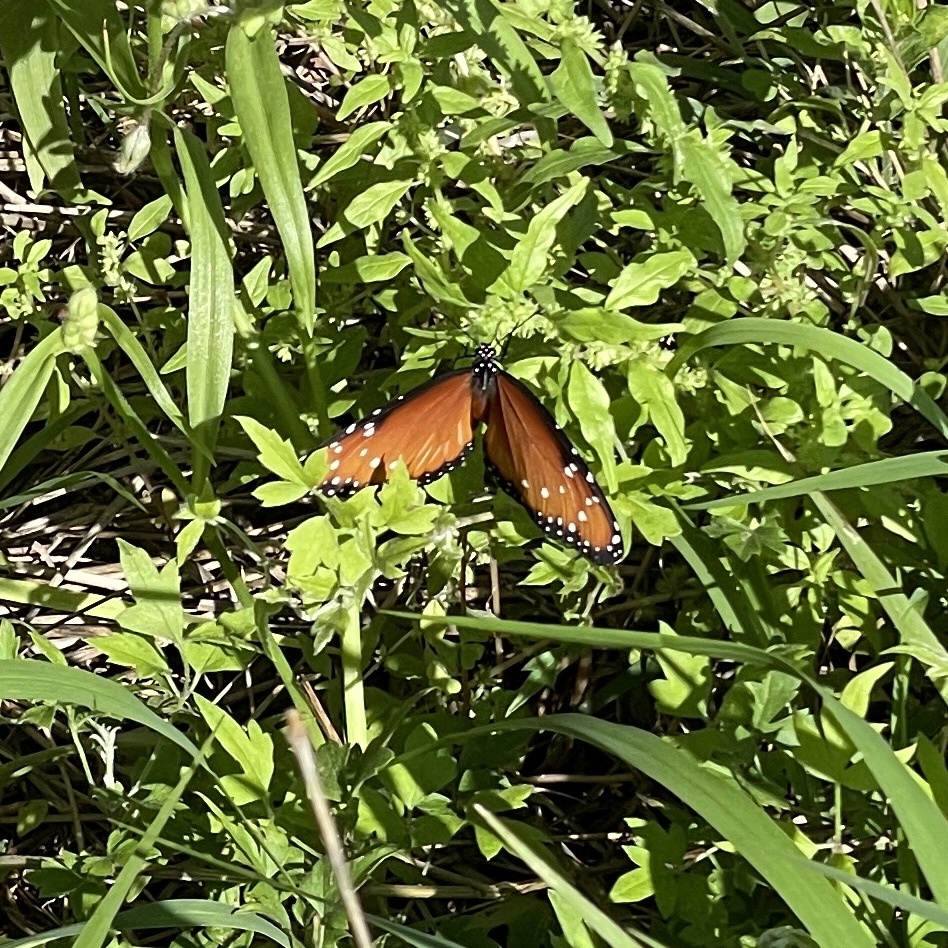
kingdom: Animalia
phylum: Arthropoda
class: Insecta
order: Lepidoptera
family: Nymphalidae
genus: Danaus
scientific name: Danaus gilippus
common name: Queen
